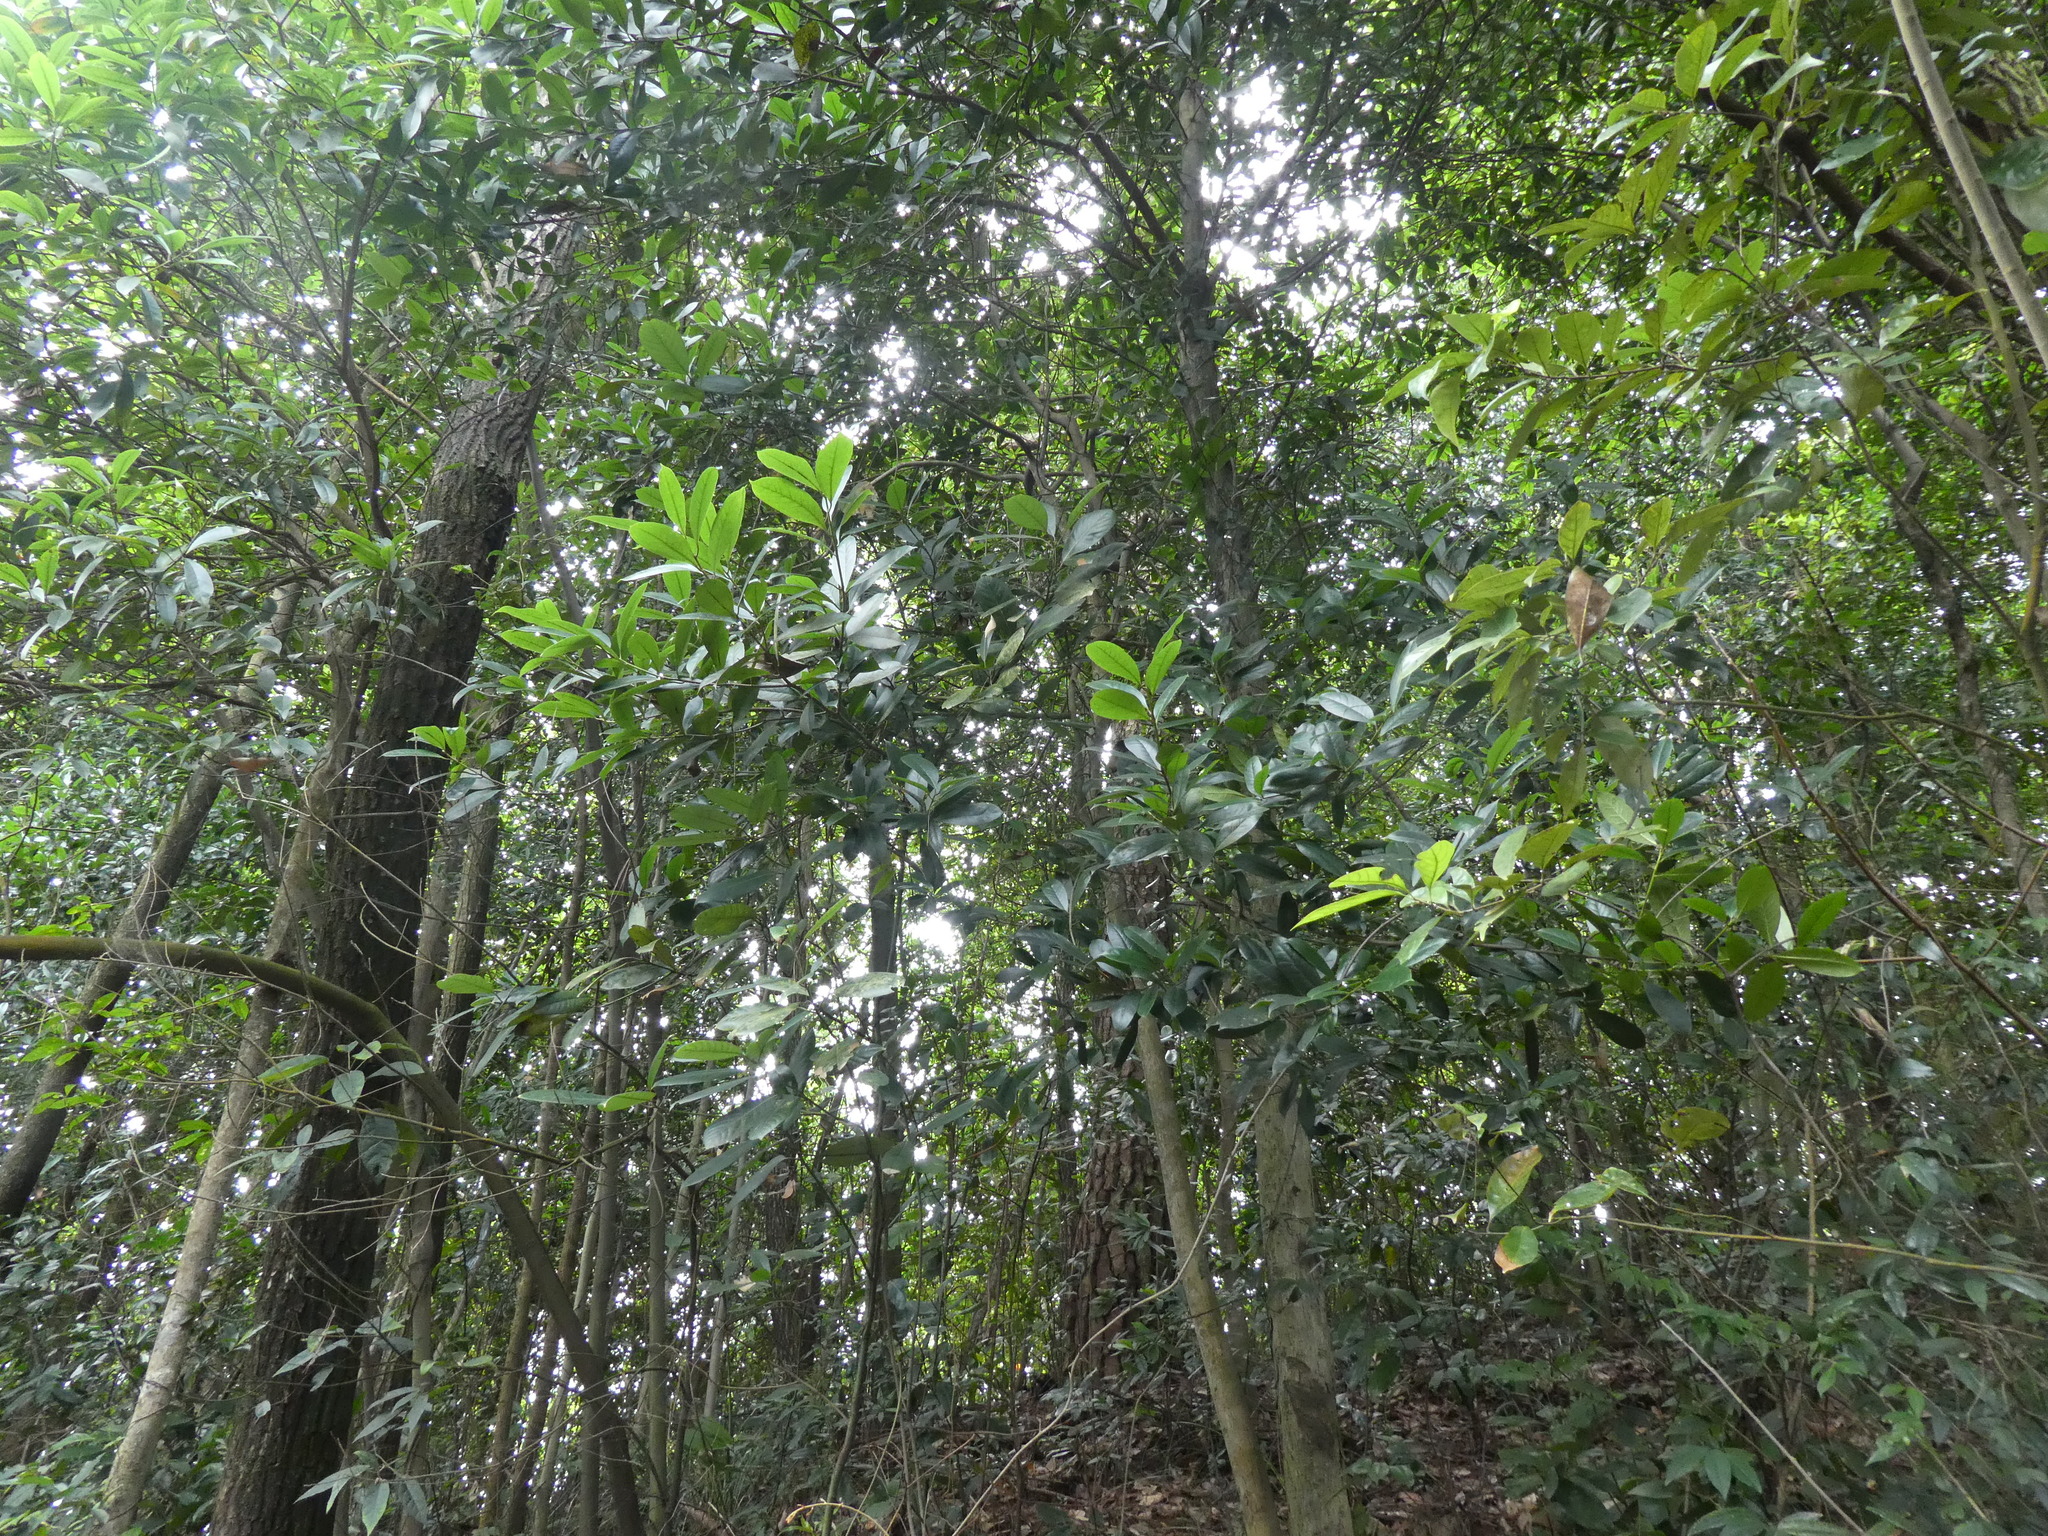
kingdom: Plantae
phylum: Tracheophyta
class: Magnoliopsida
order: Saxifragales
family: Altingiaceae
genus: Liquidambar
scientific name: Liquidambar chinensis
